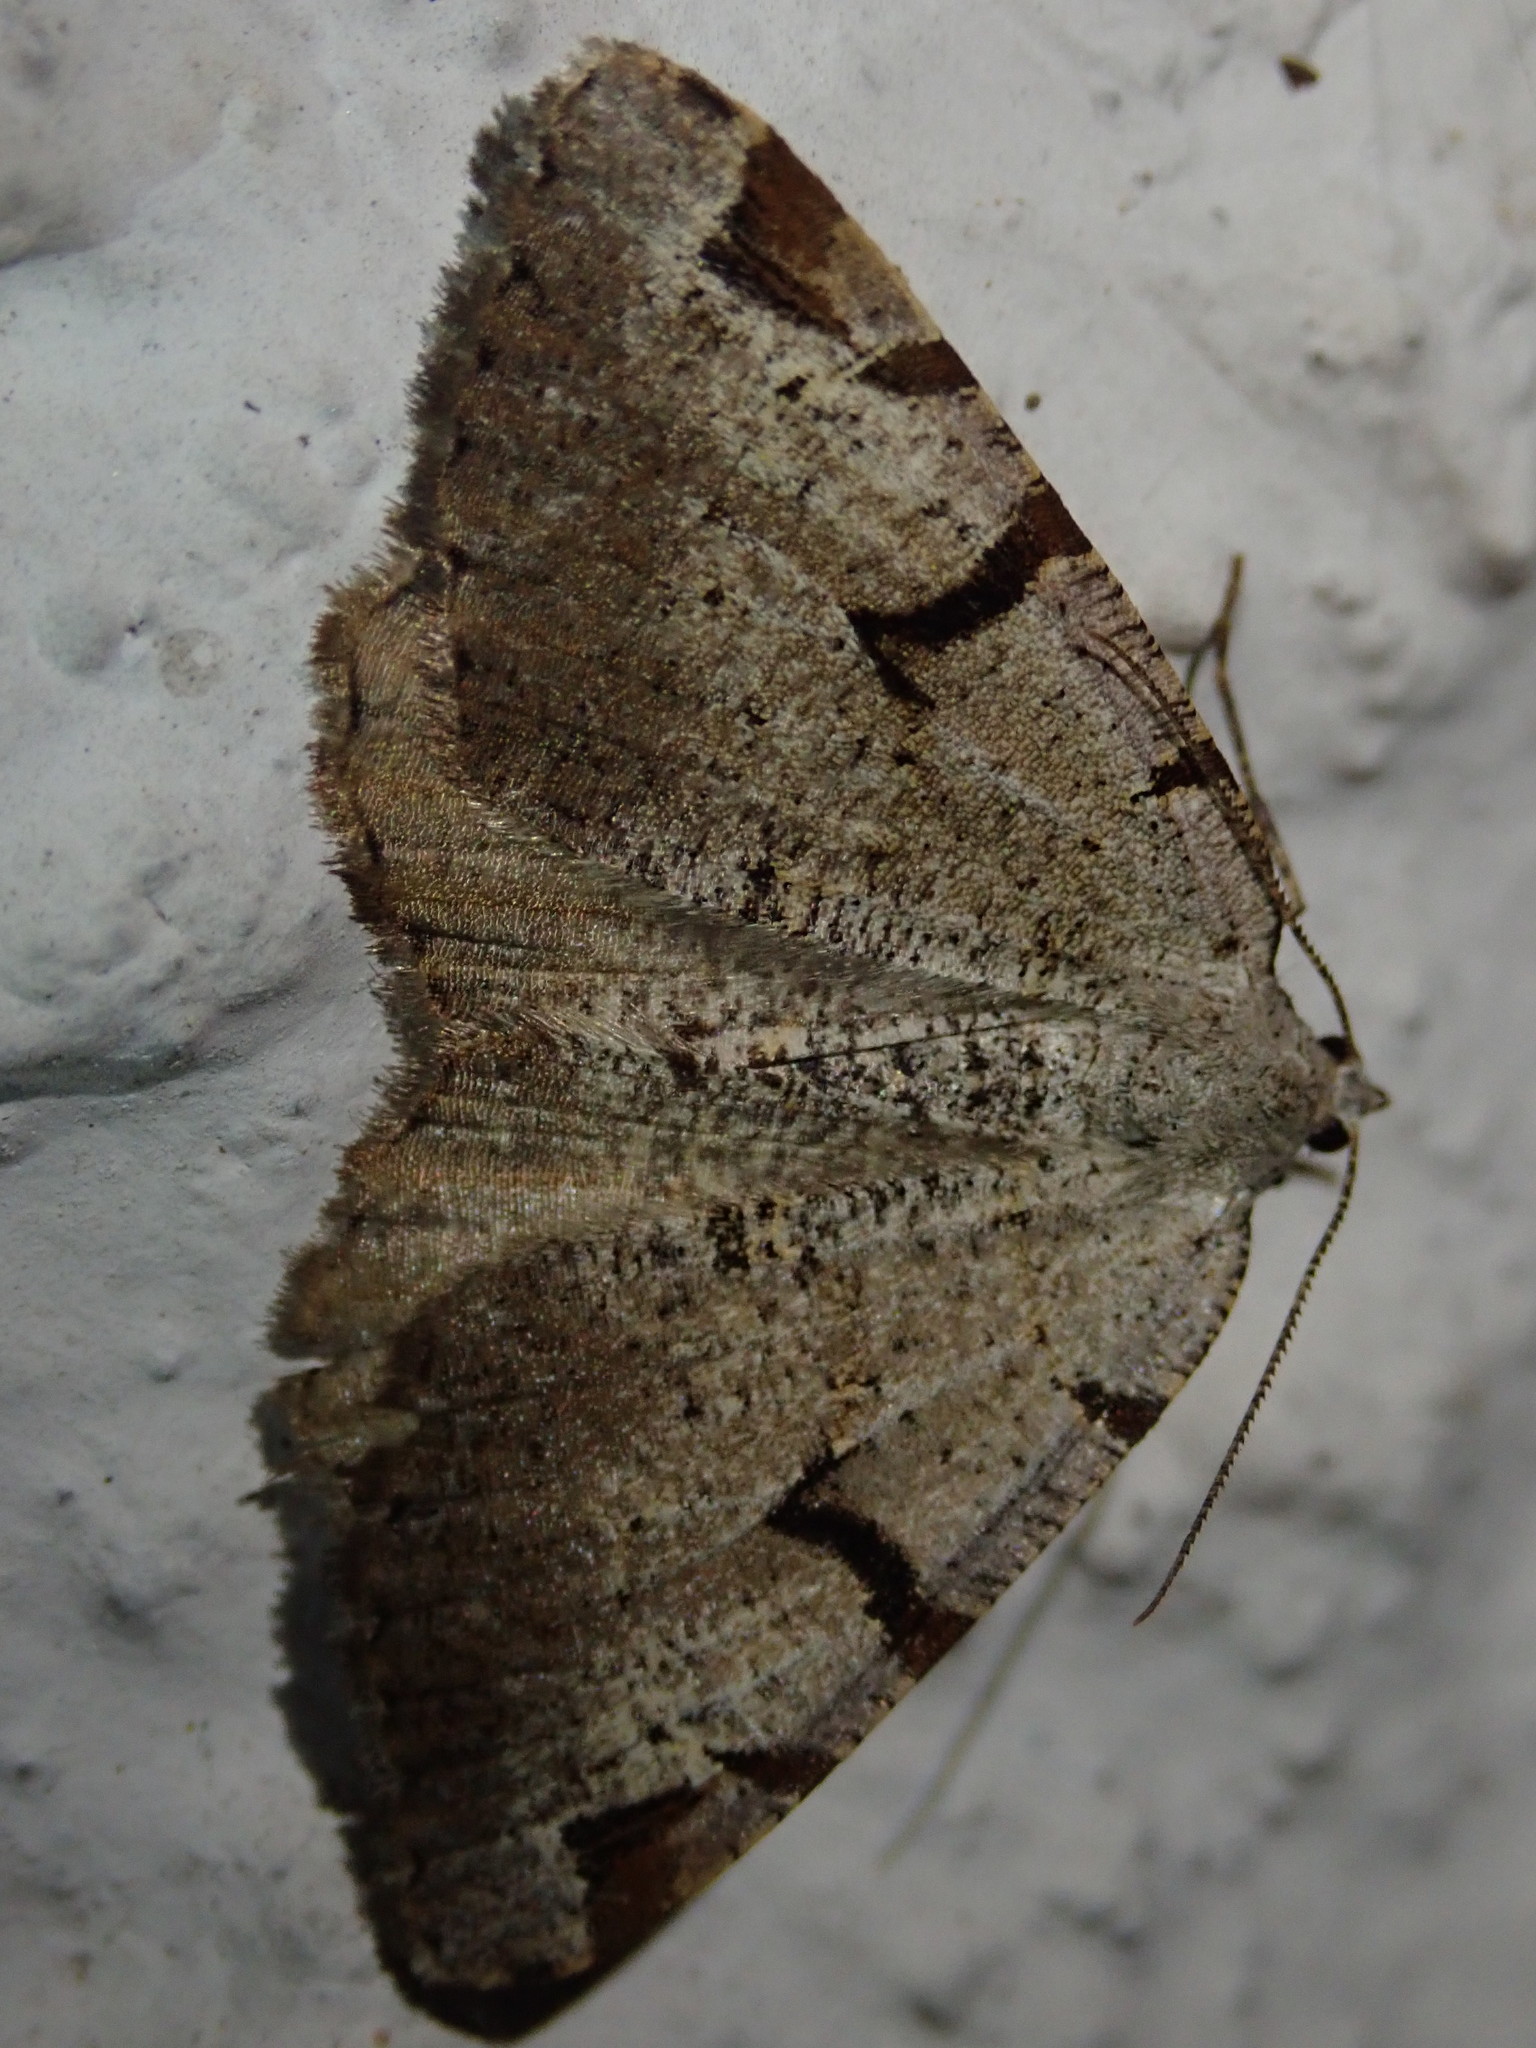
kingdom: Animalia
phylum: Arthropoda
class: Insecta
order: Lepidoptera
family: Geometridae
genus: Macaria
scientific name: Macaria wauaria
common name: V-moth
